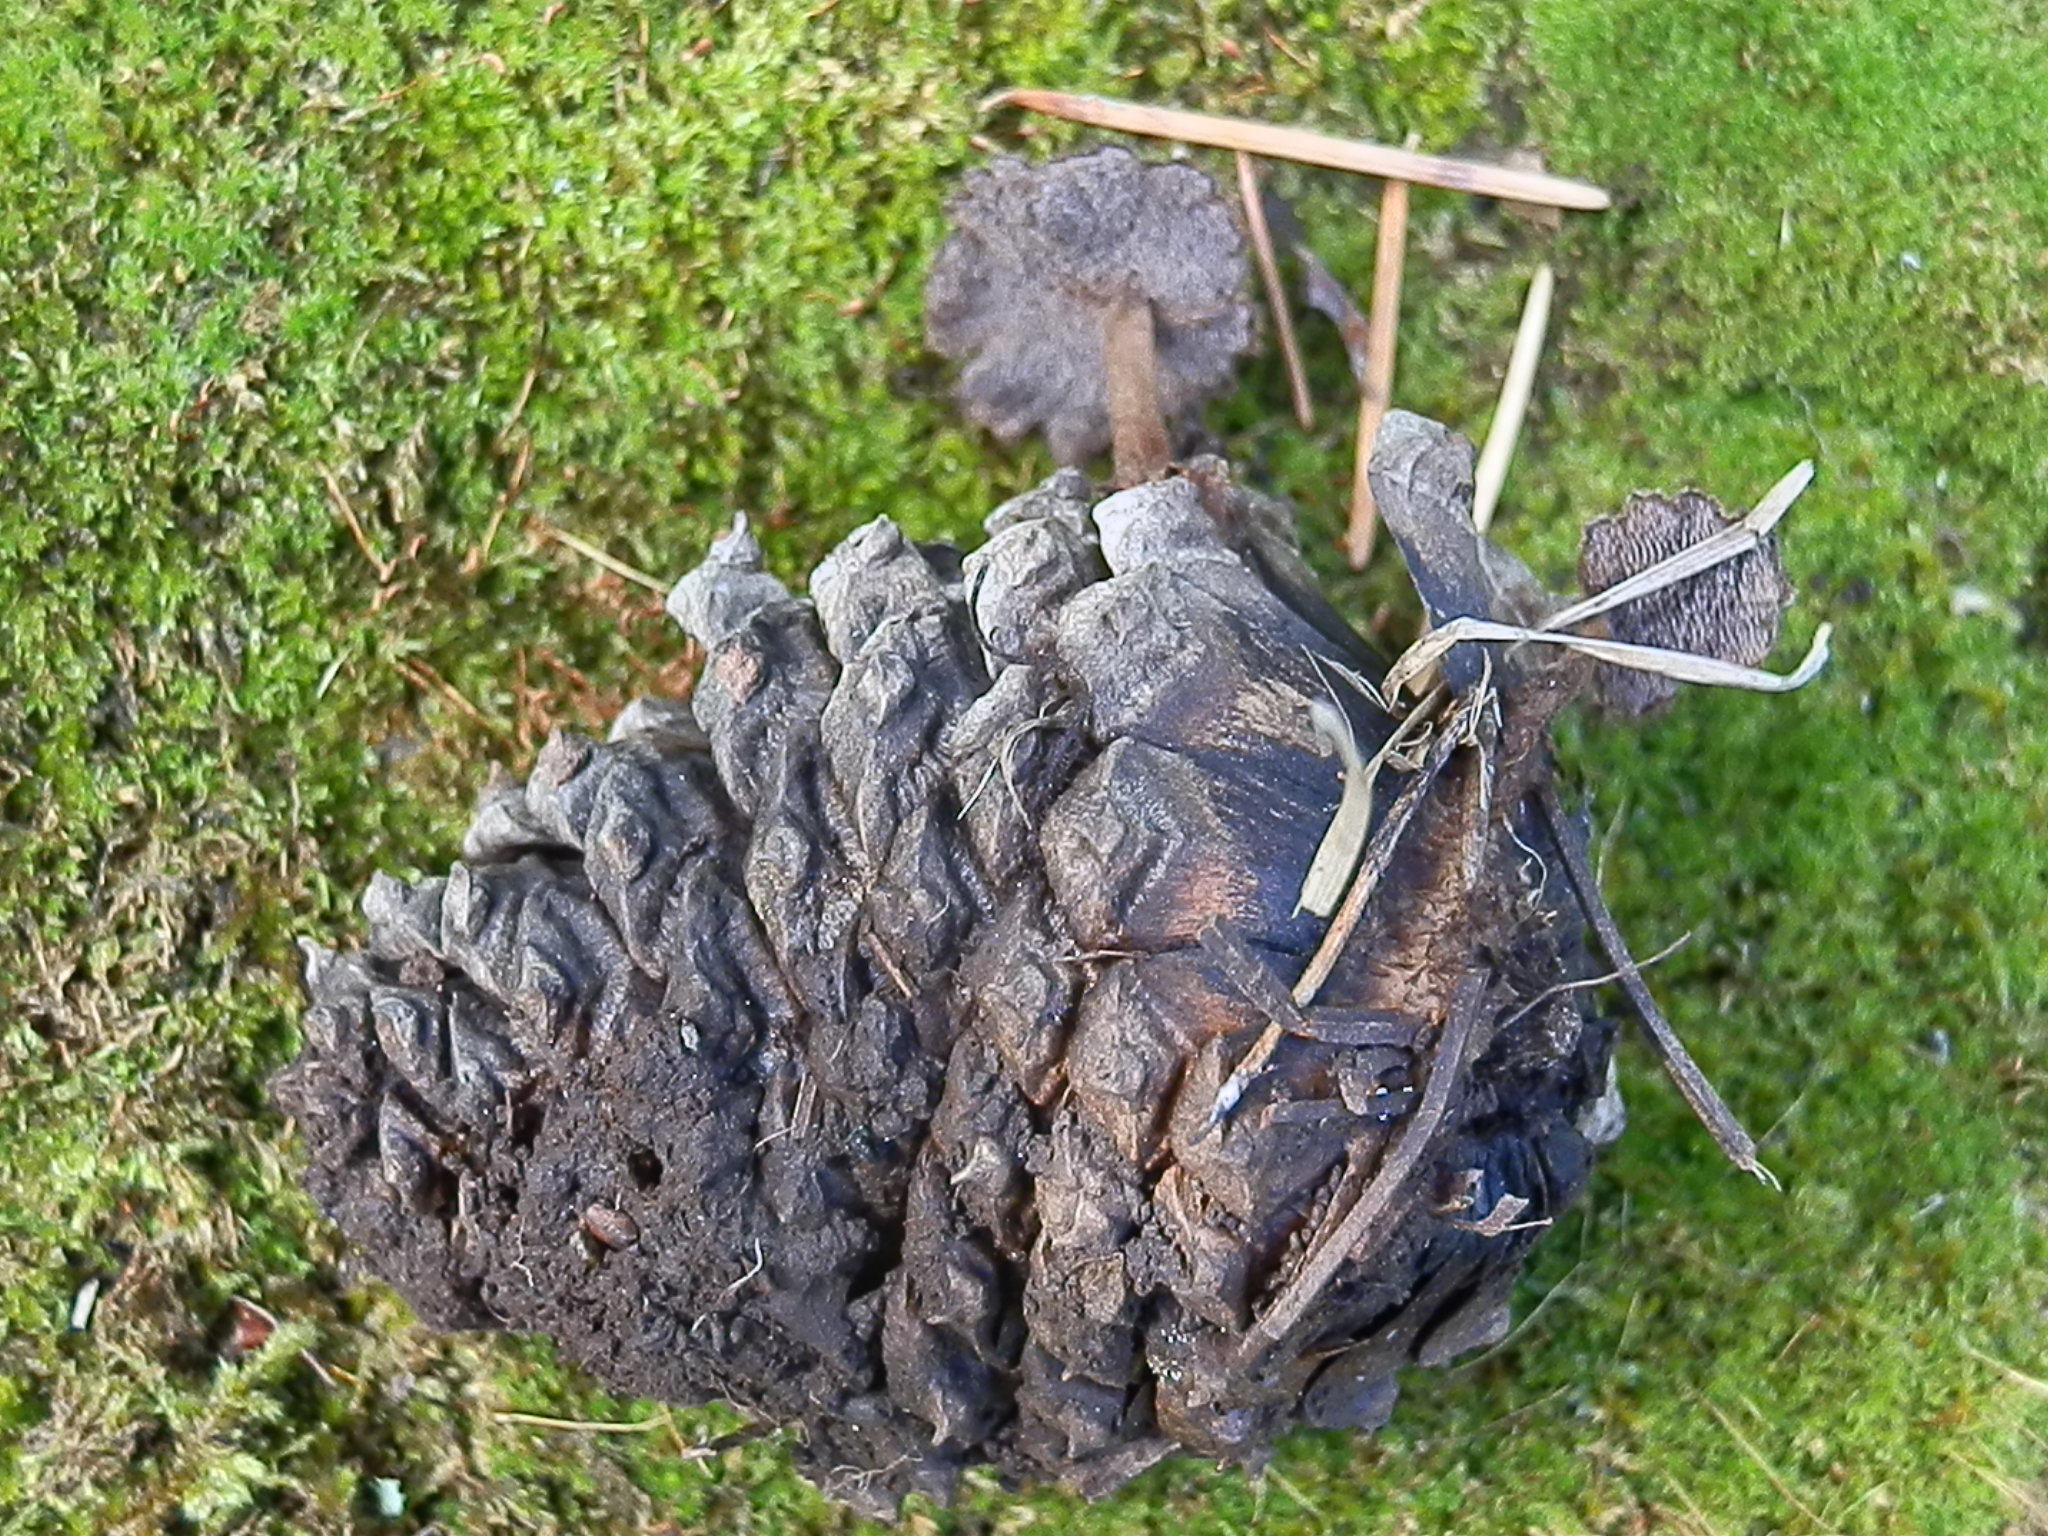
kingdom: Fungi
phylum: Basidiomycota
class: Agaricomycetes
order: Russulales
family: Auriscalpiaceae
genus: Auriscalpium
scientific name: Auriscalpium vulgare
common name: Earpick fungus
